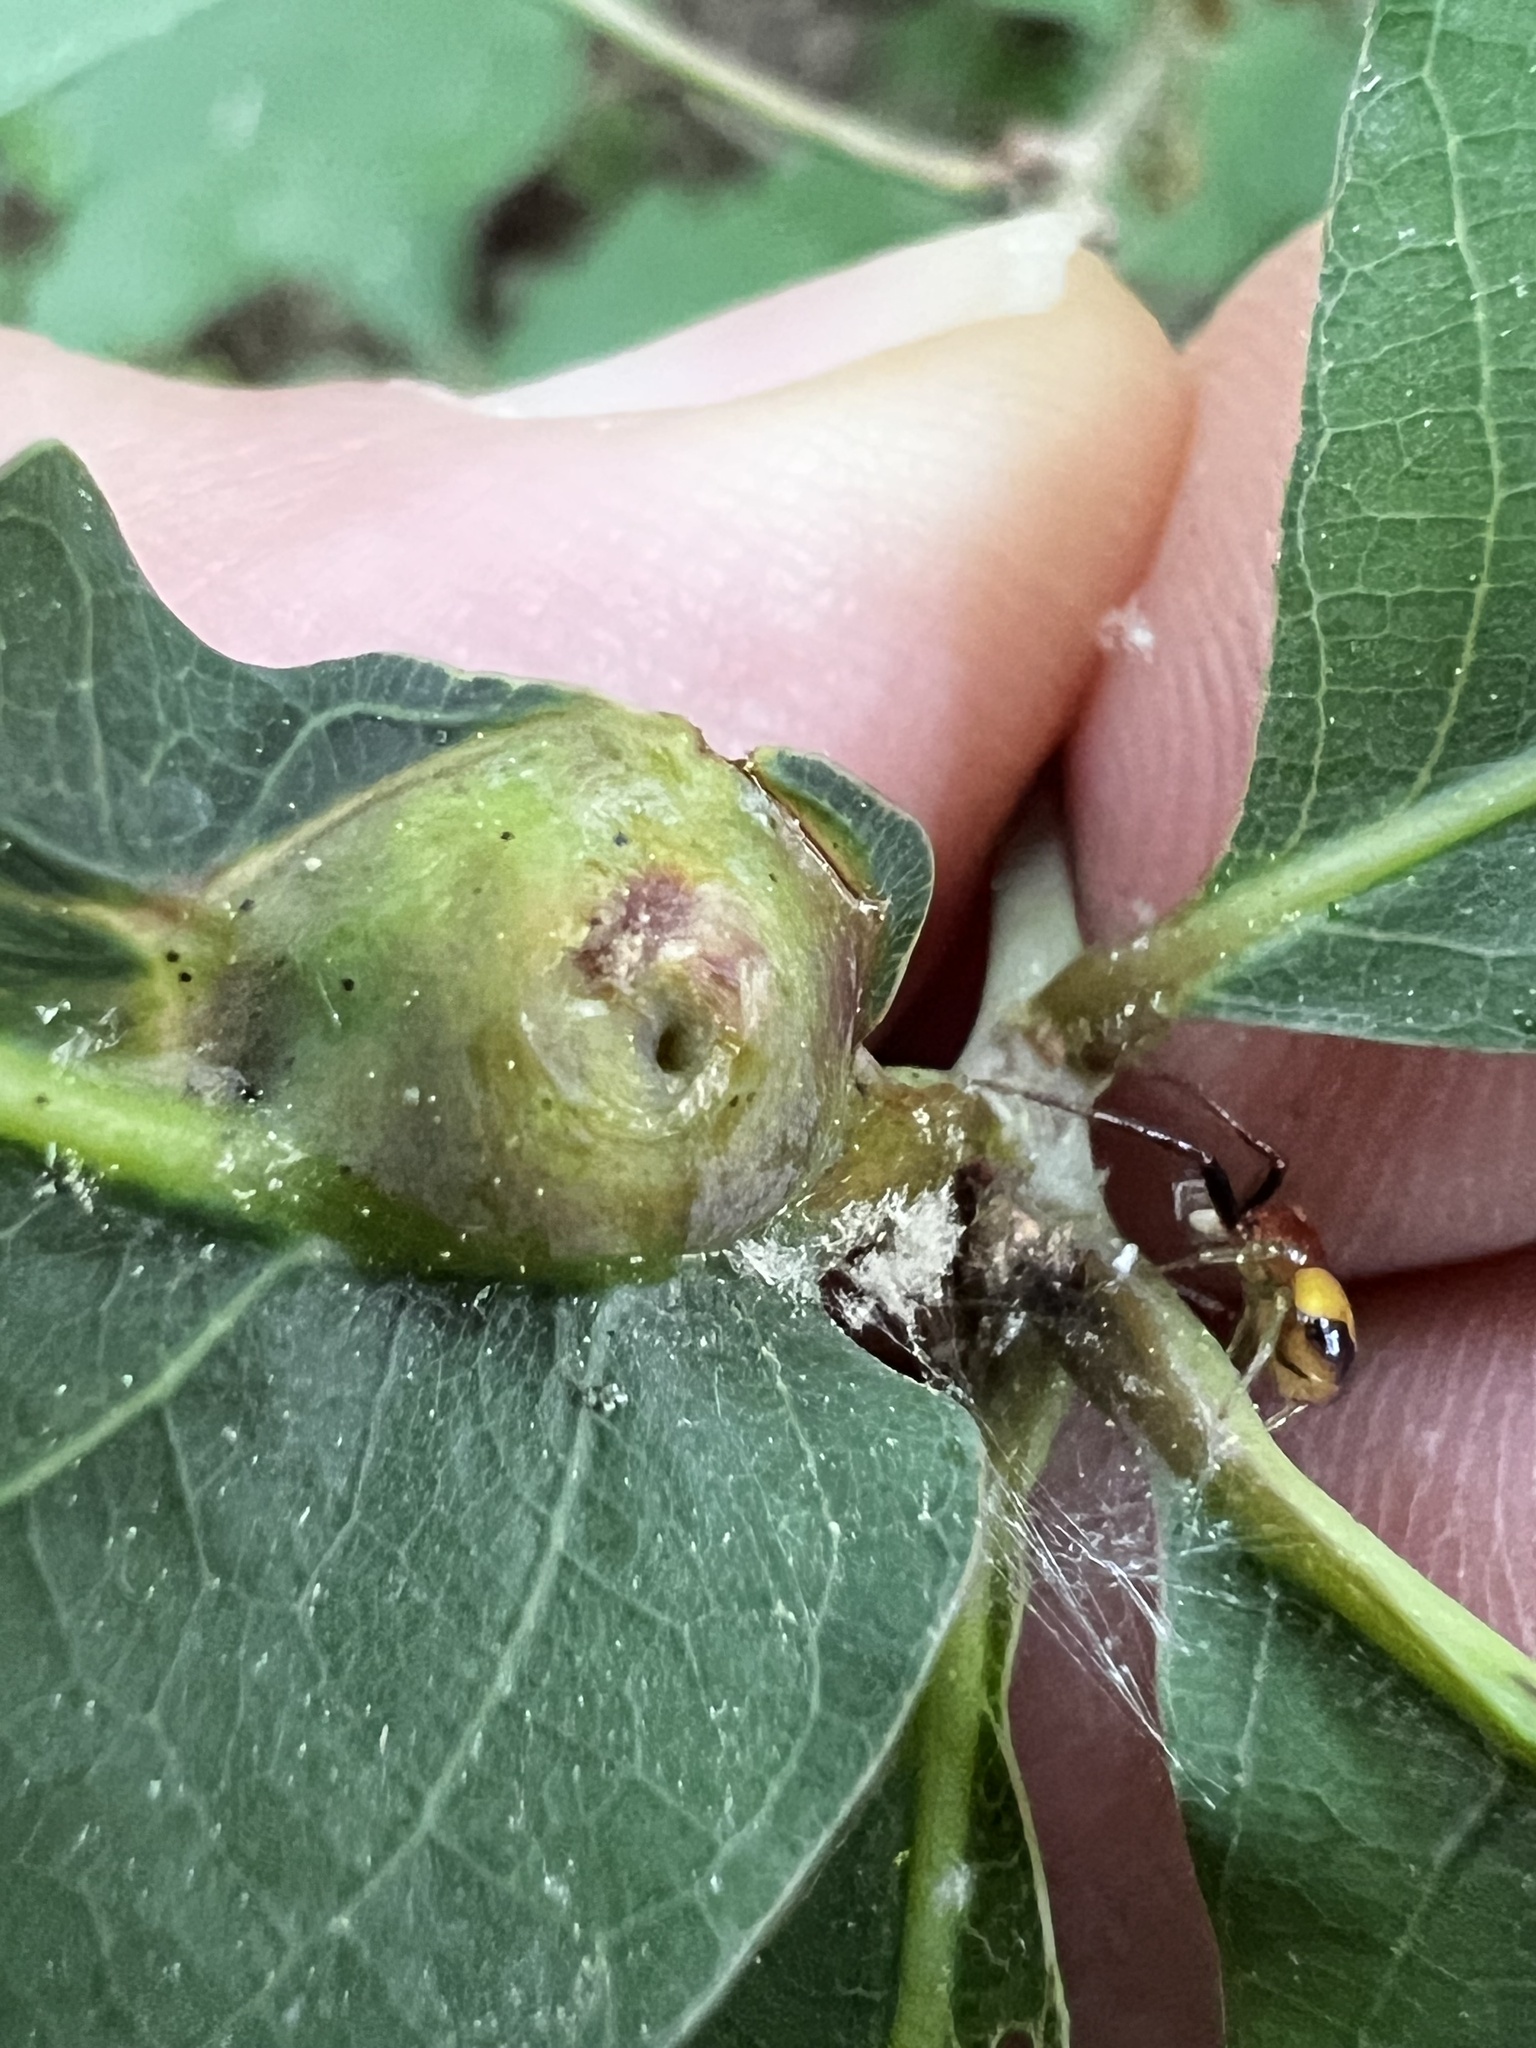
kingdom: Animalia
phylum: Arthropoda
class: Insecta
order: Hymenoptera
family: Cynipidae
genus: Andricus
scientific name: Andricus
